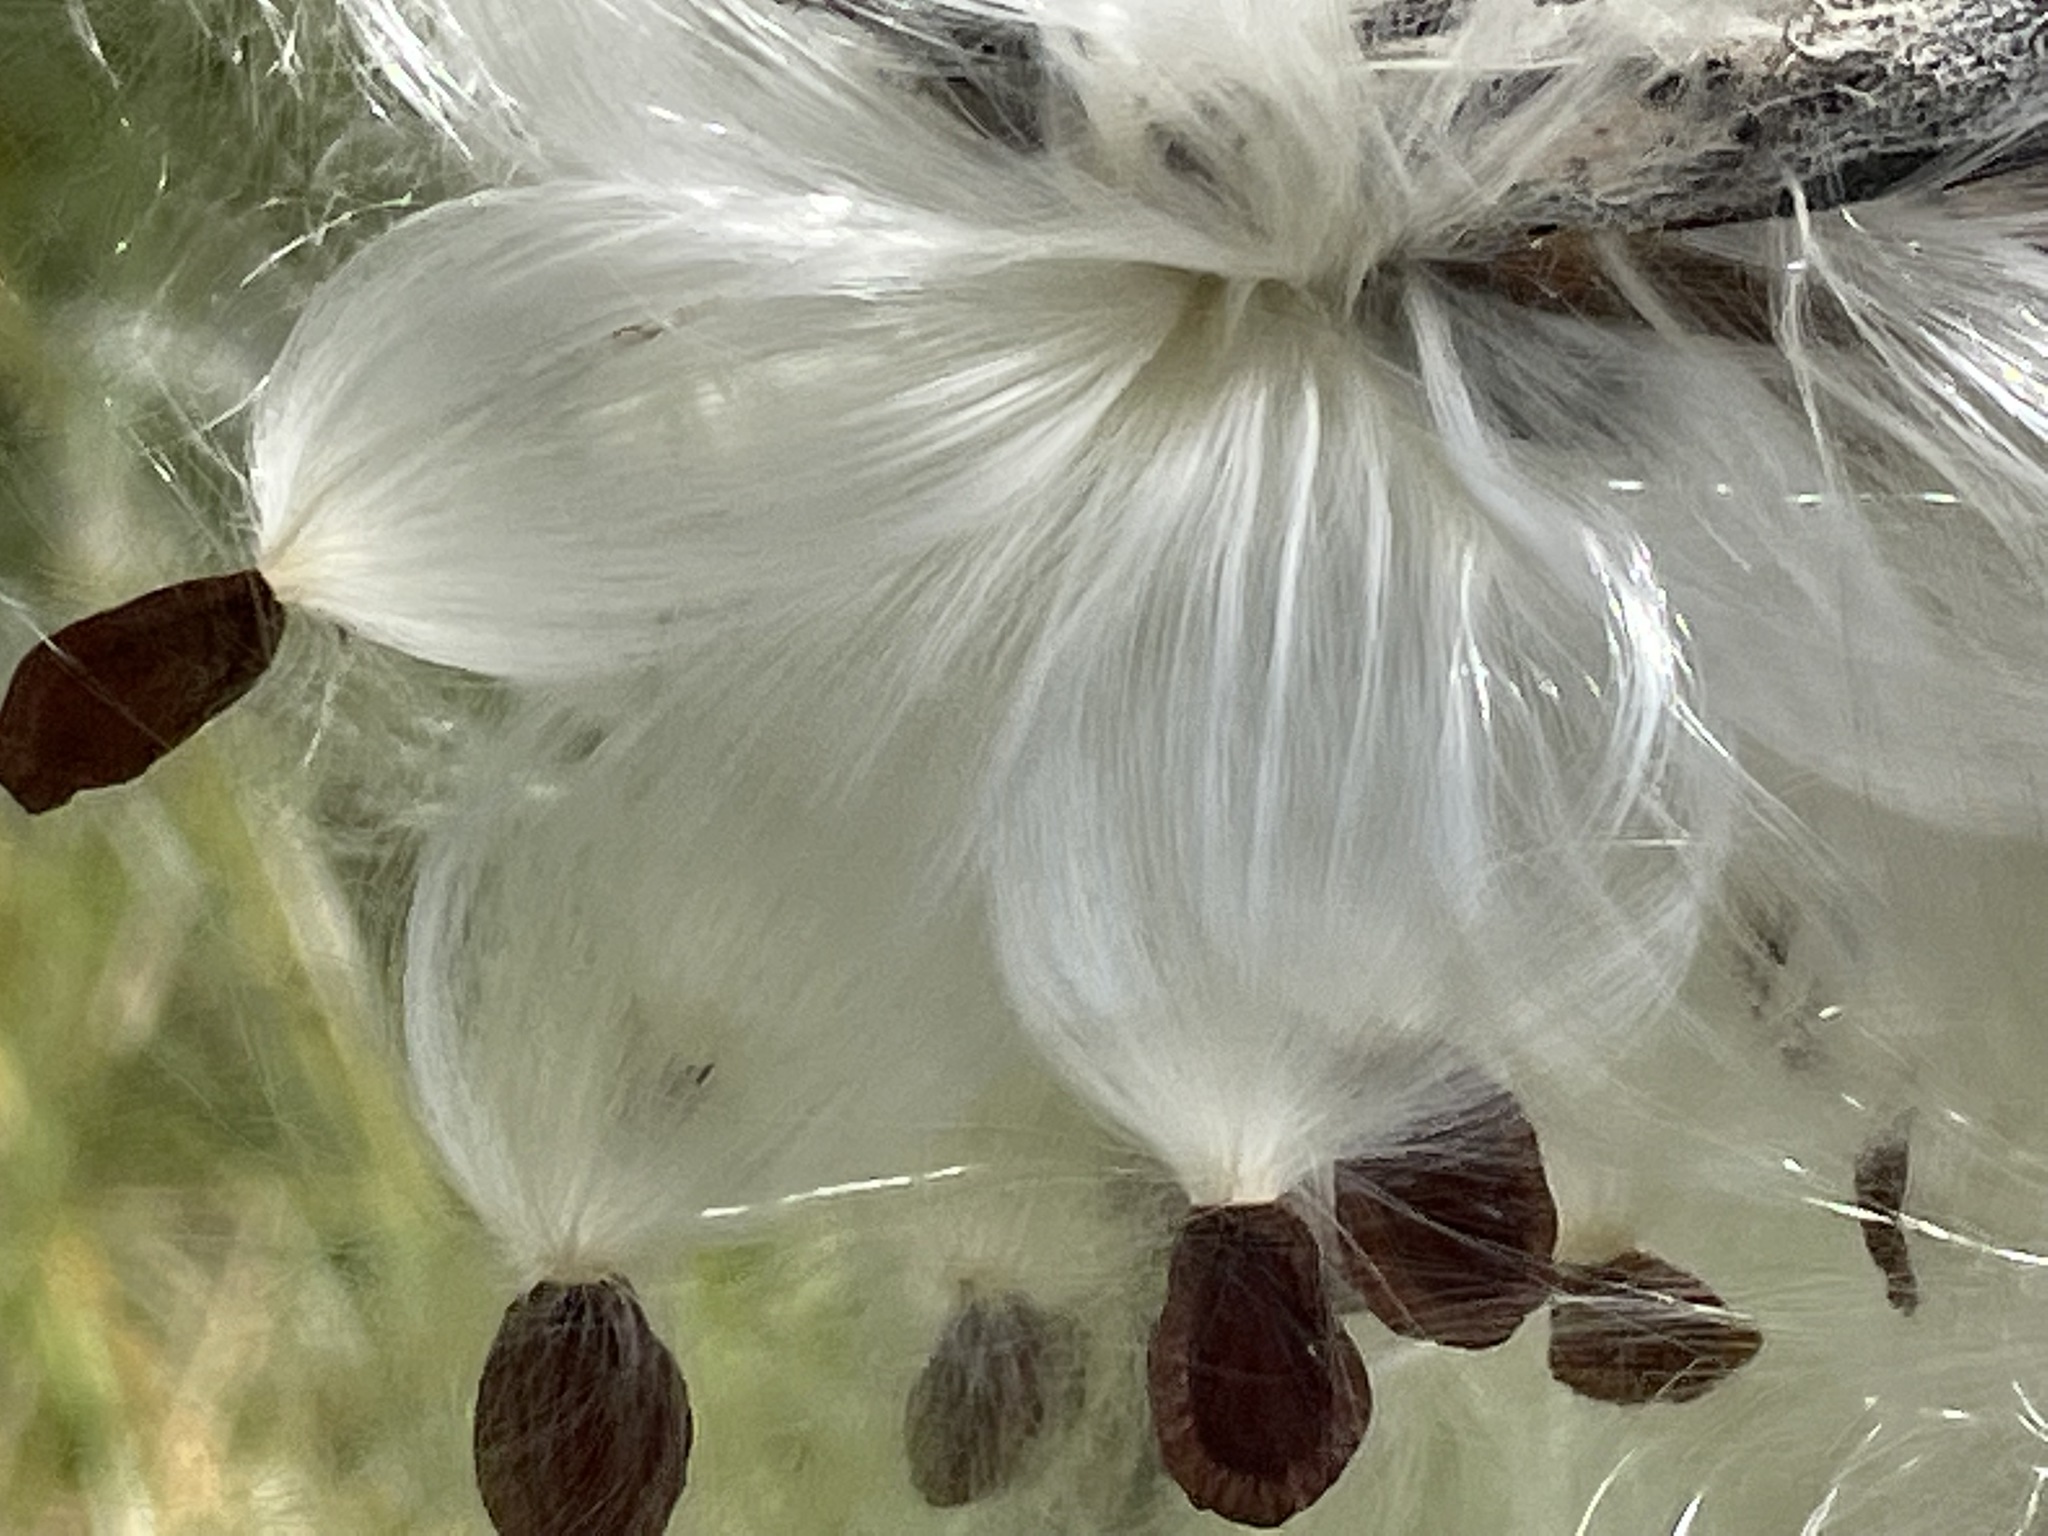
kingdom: Plantae
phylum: Tracheophyta
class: Magnoliopsida
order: Gentianales
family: Apocynaceae
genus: Asclepias
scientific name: Asclepias syriaca
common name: Common milkweed
